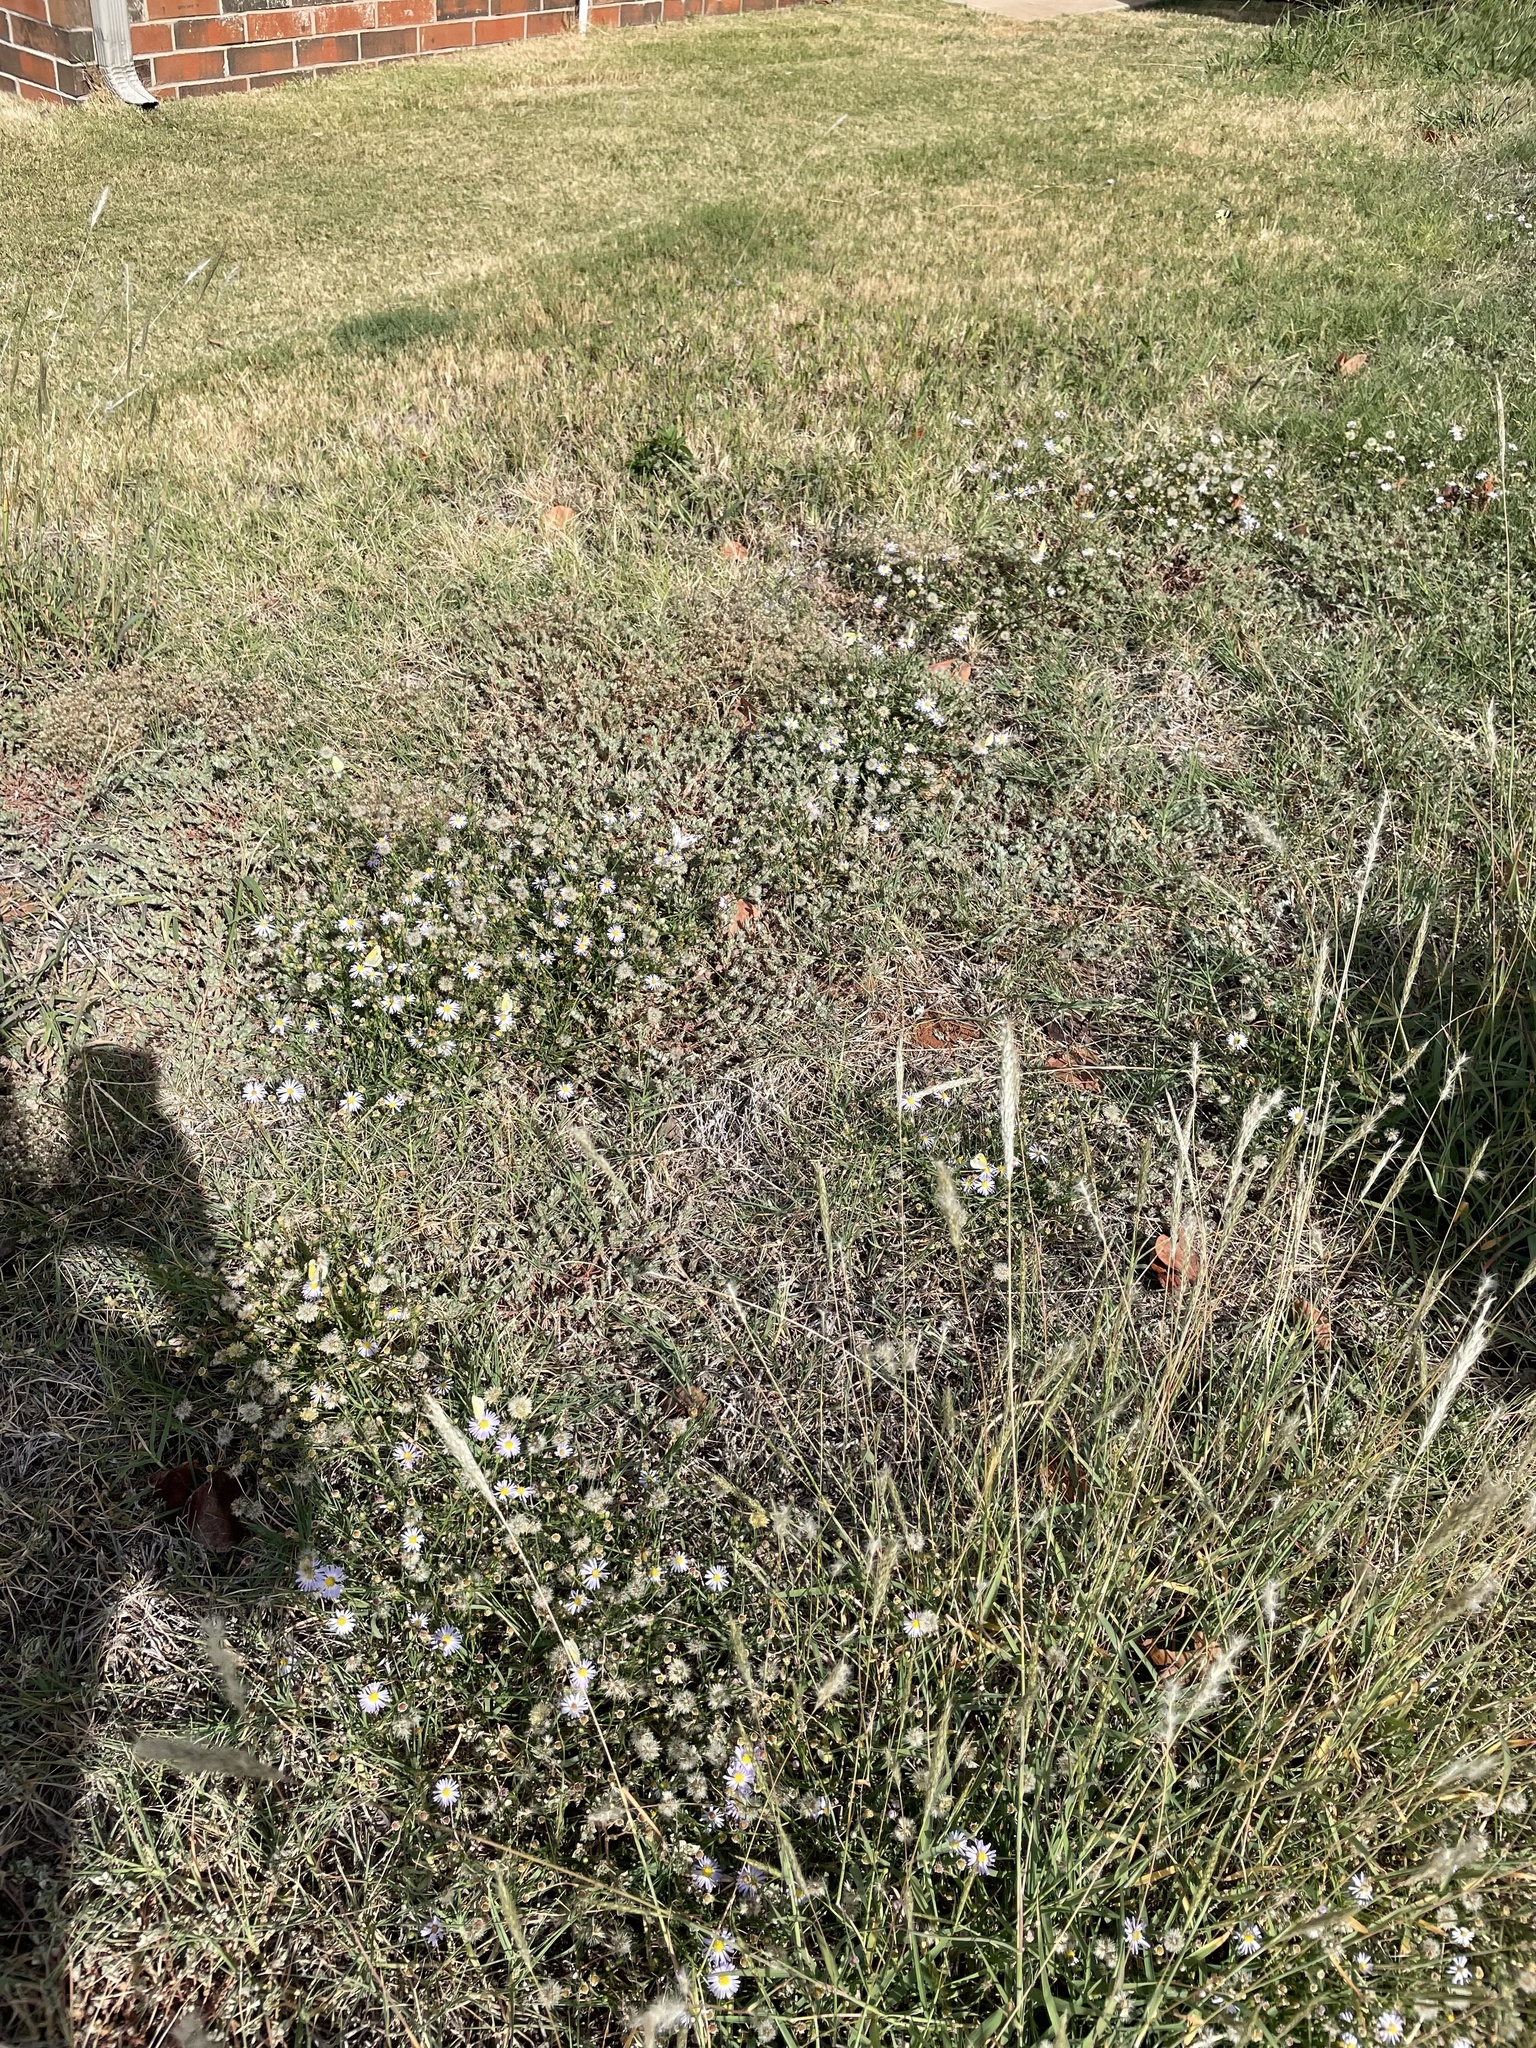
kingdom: Animalia
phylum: Arthropoda
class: Insecta
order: Lepidoptera
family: Pieridae
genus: Pontia
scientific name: Pontia protodice
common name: Checkered white
